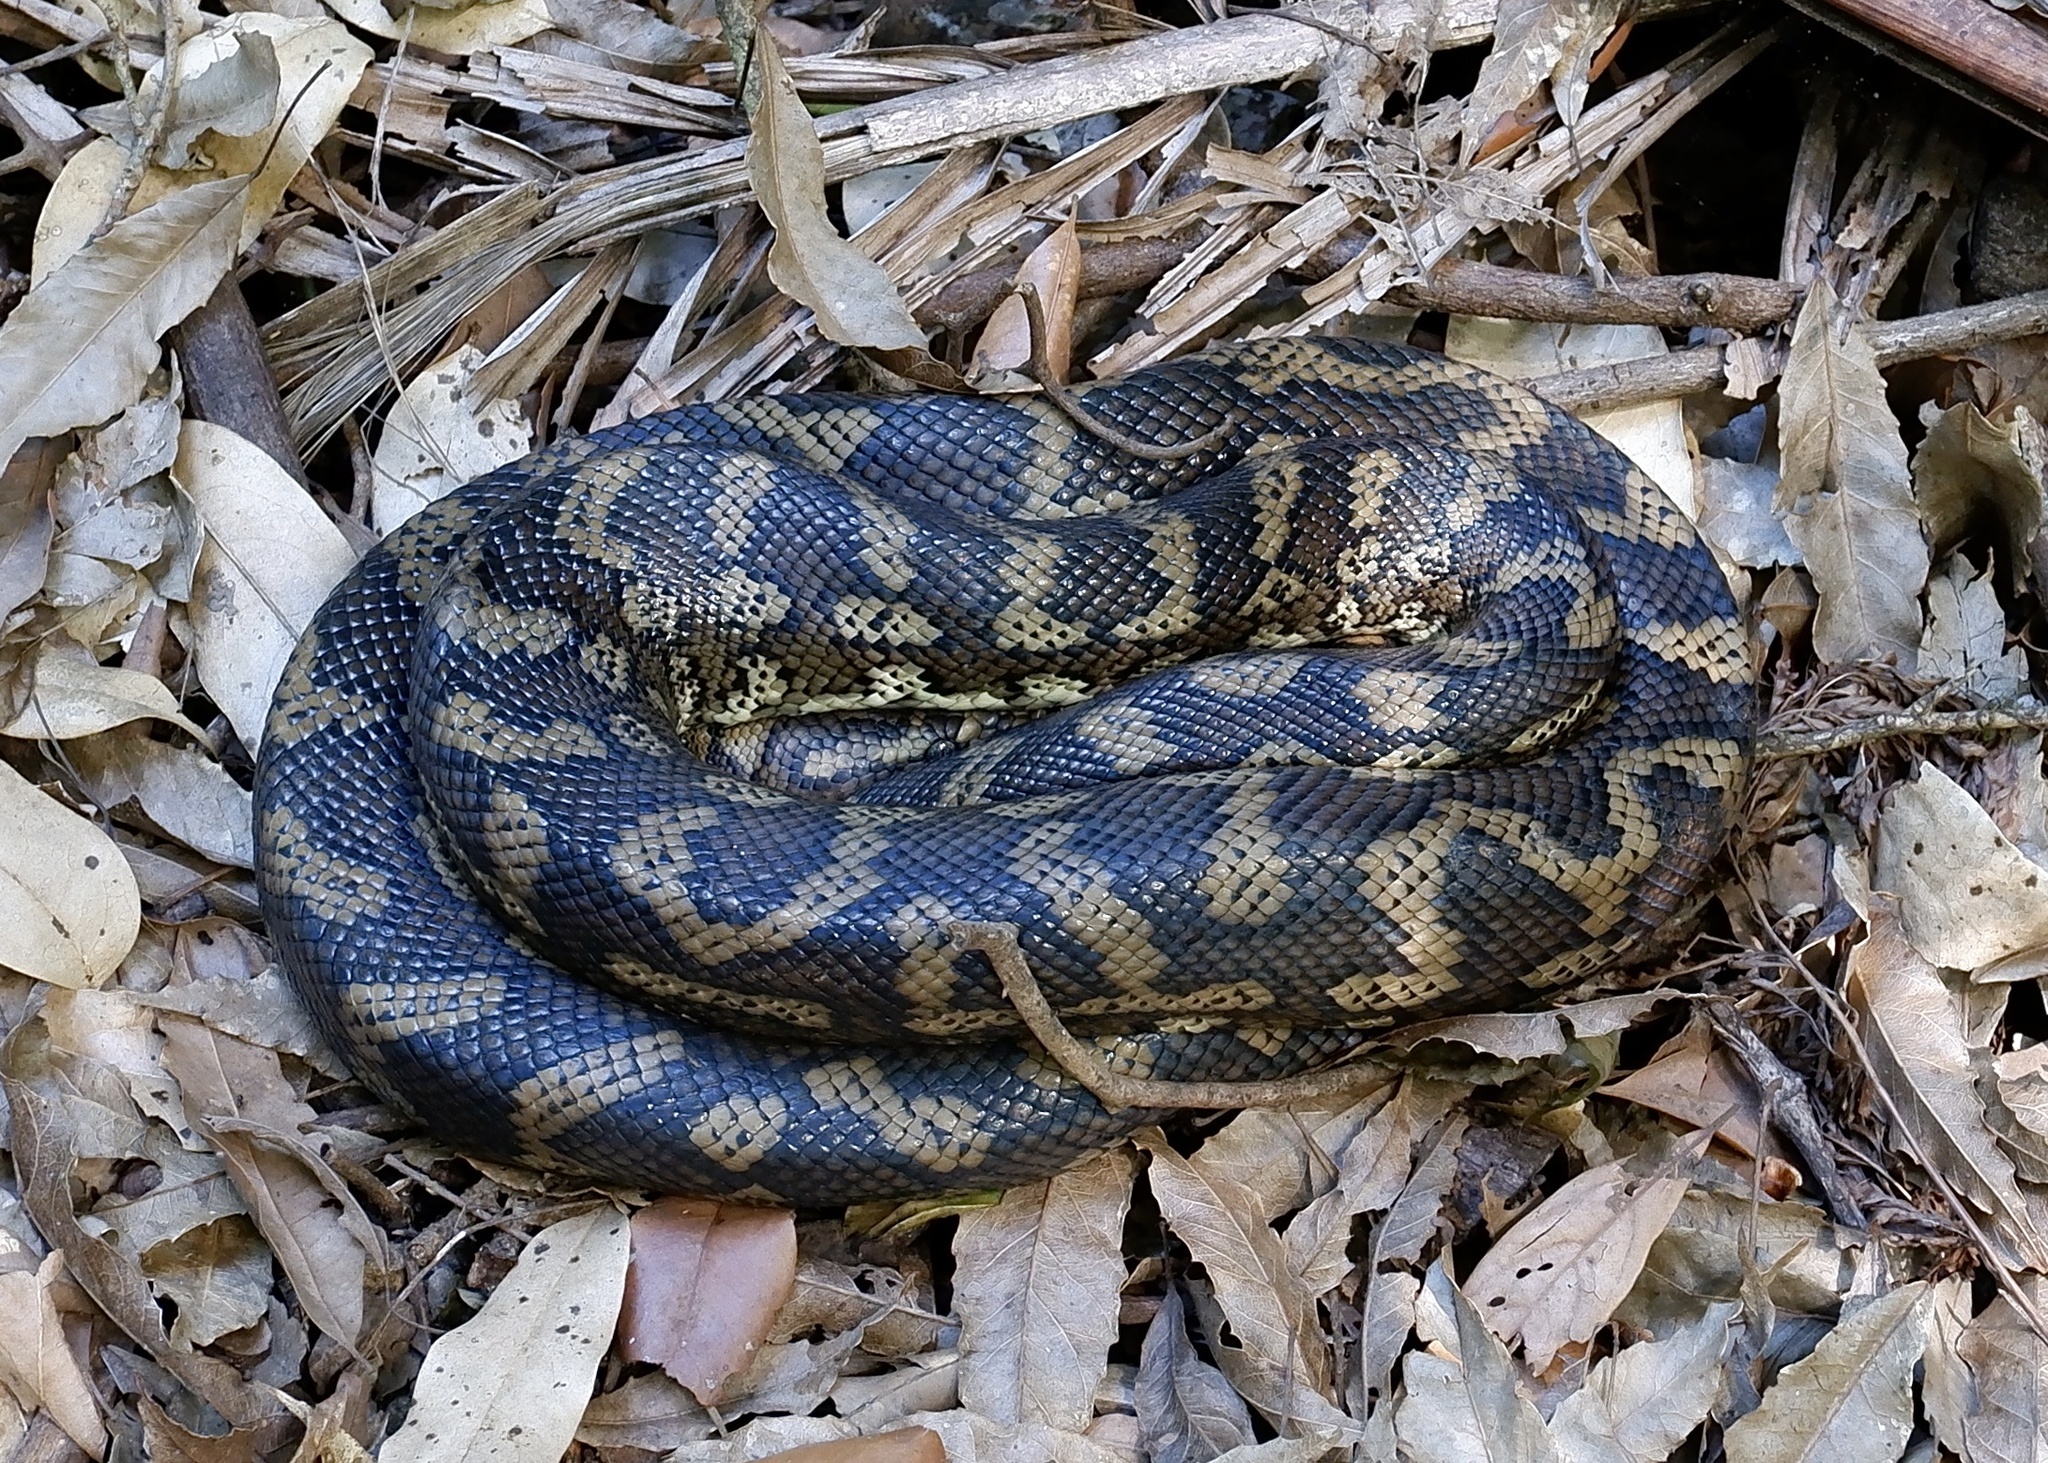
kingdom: Animalia
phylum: Chordata
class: Squamata
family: Pythonidae
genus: Morelia
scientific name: Morelia spilota
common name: Carpet python
